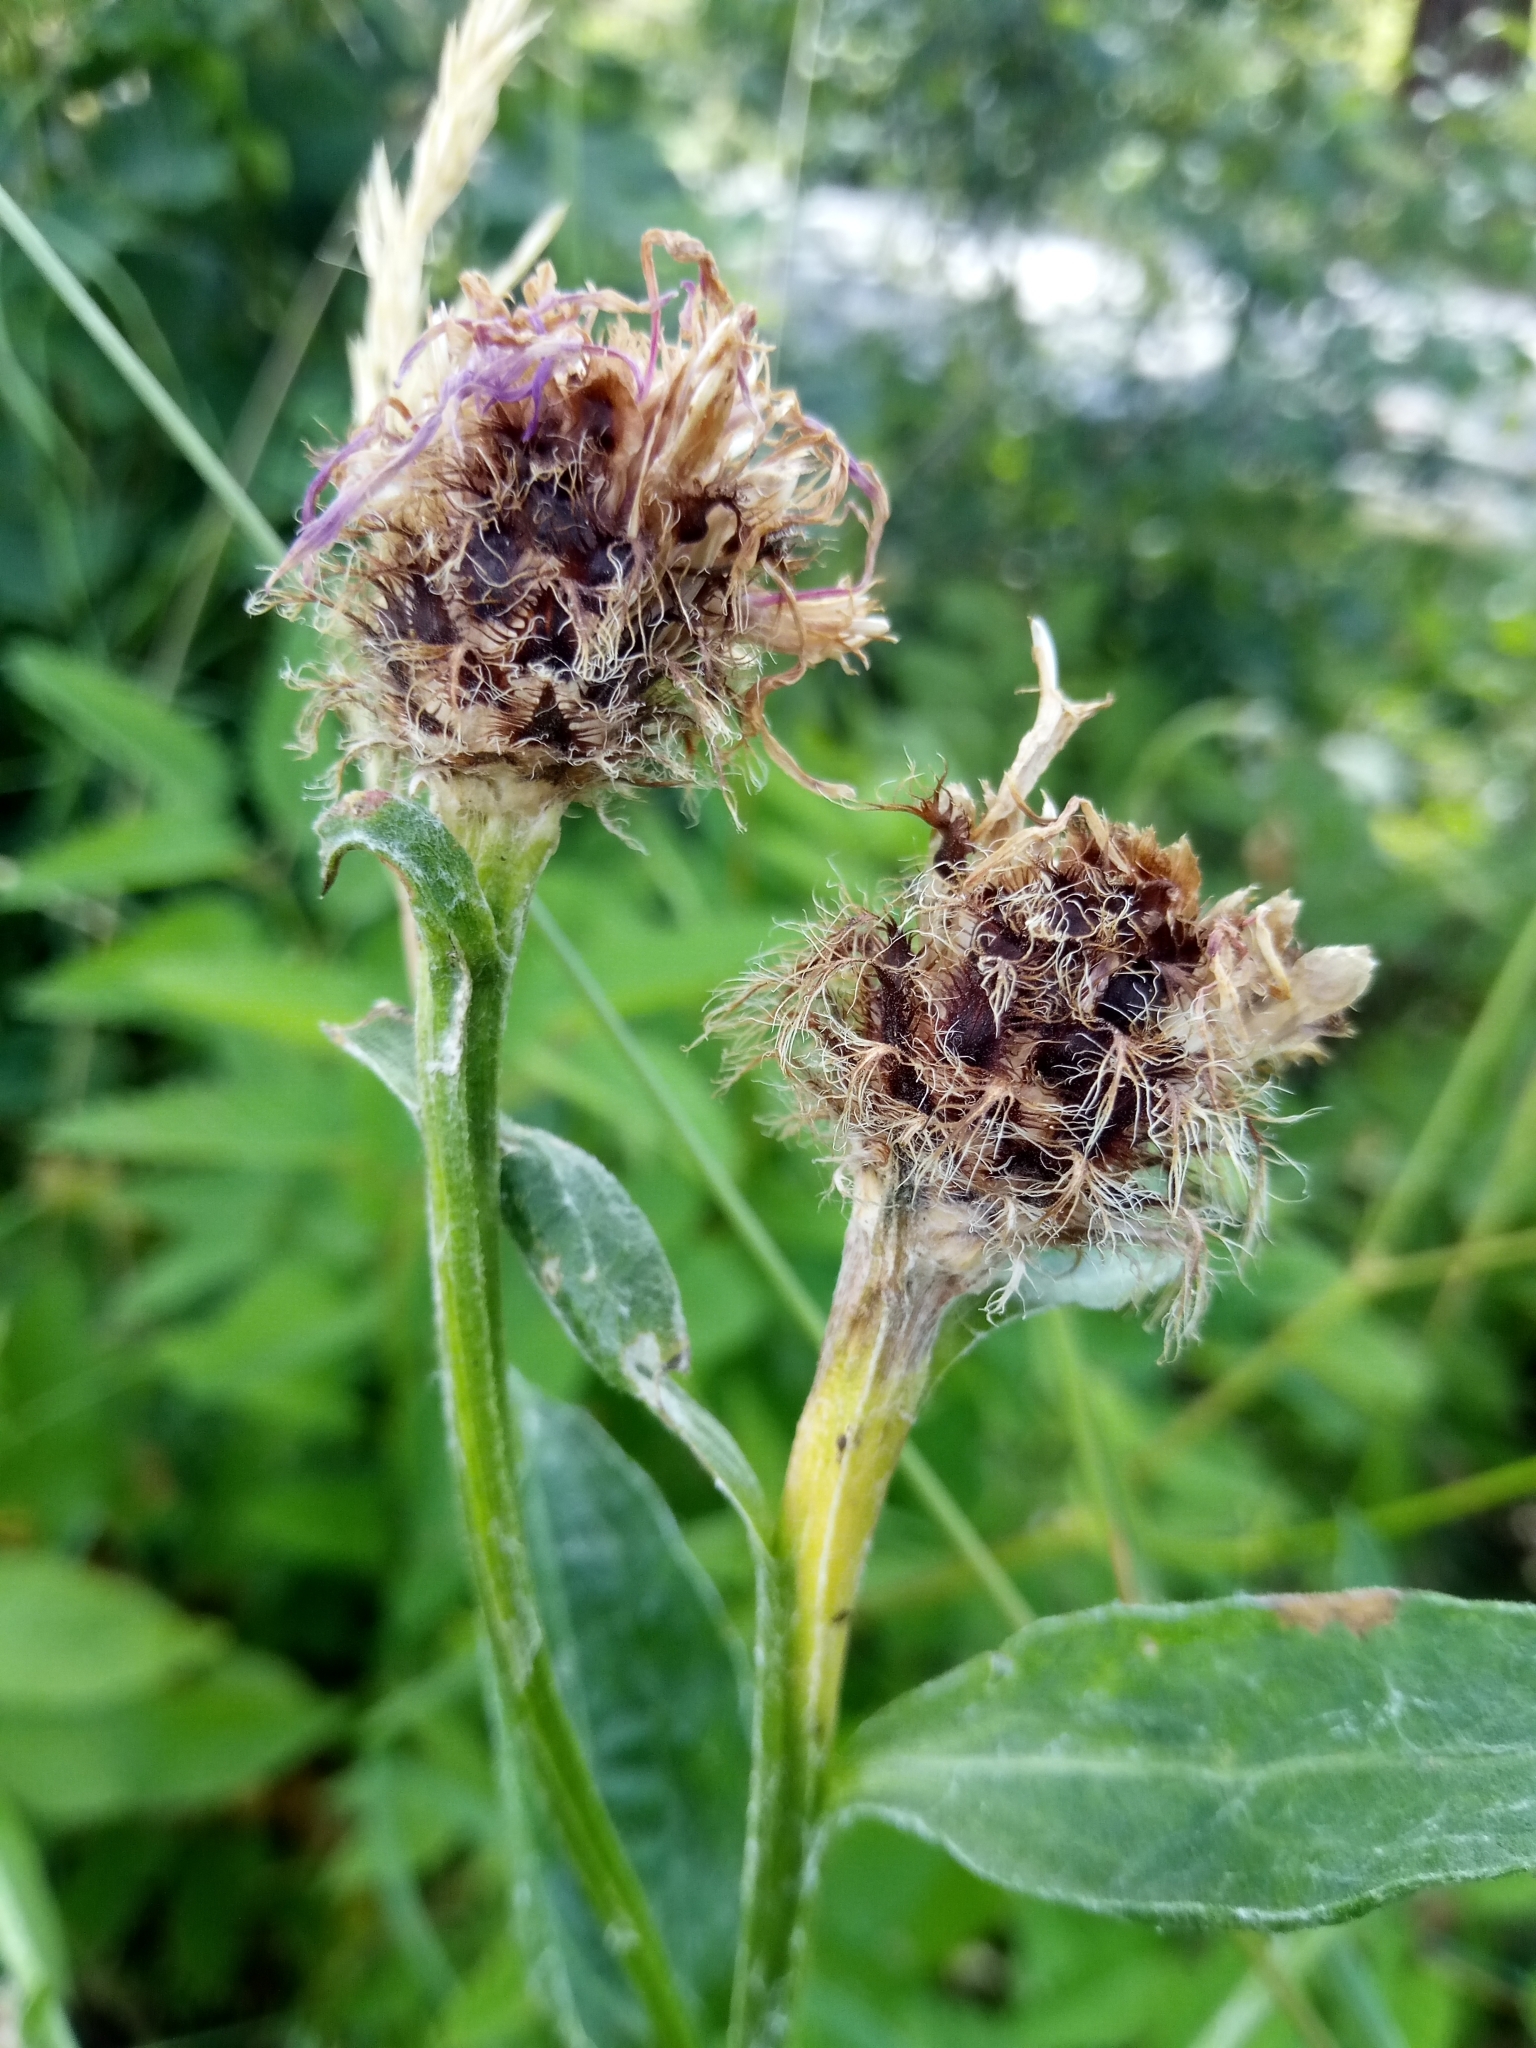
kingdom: Plantae
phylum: Tracheophyta
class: Magnoliopsida
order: Asterales
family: Asteraceae
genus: Centaurea
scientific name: Centaurea oxylepis
